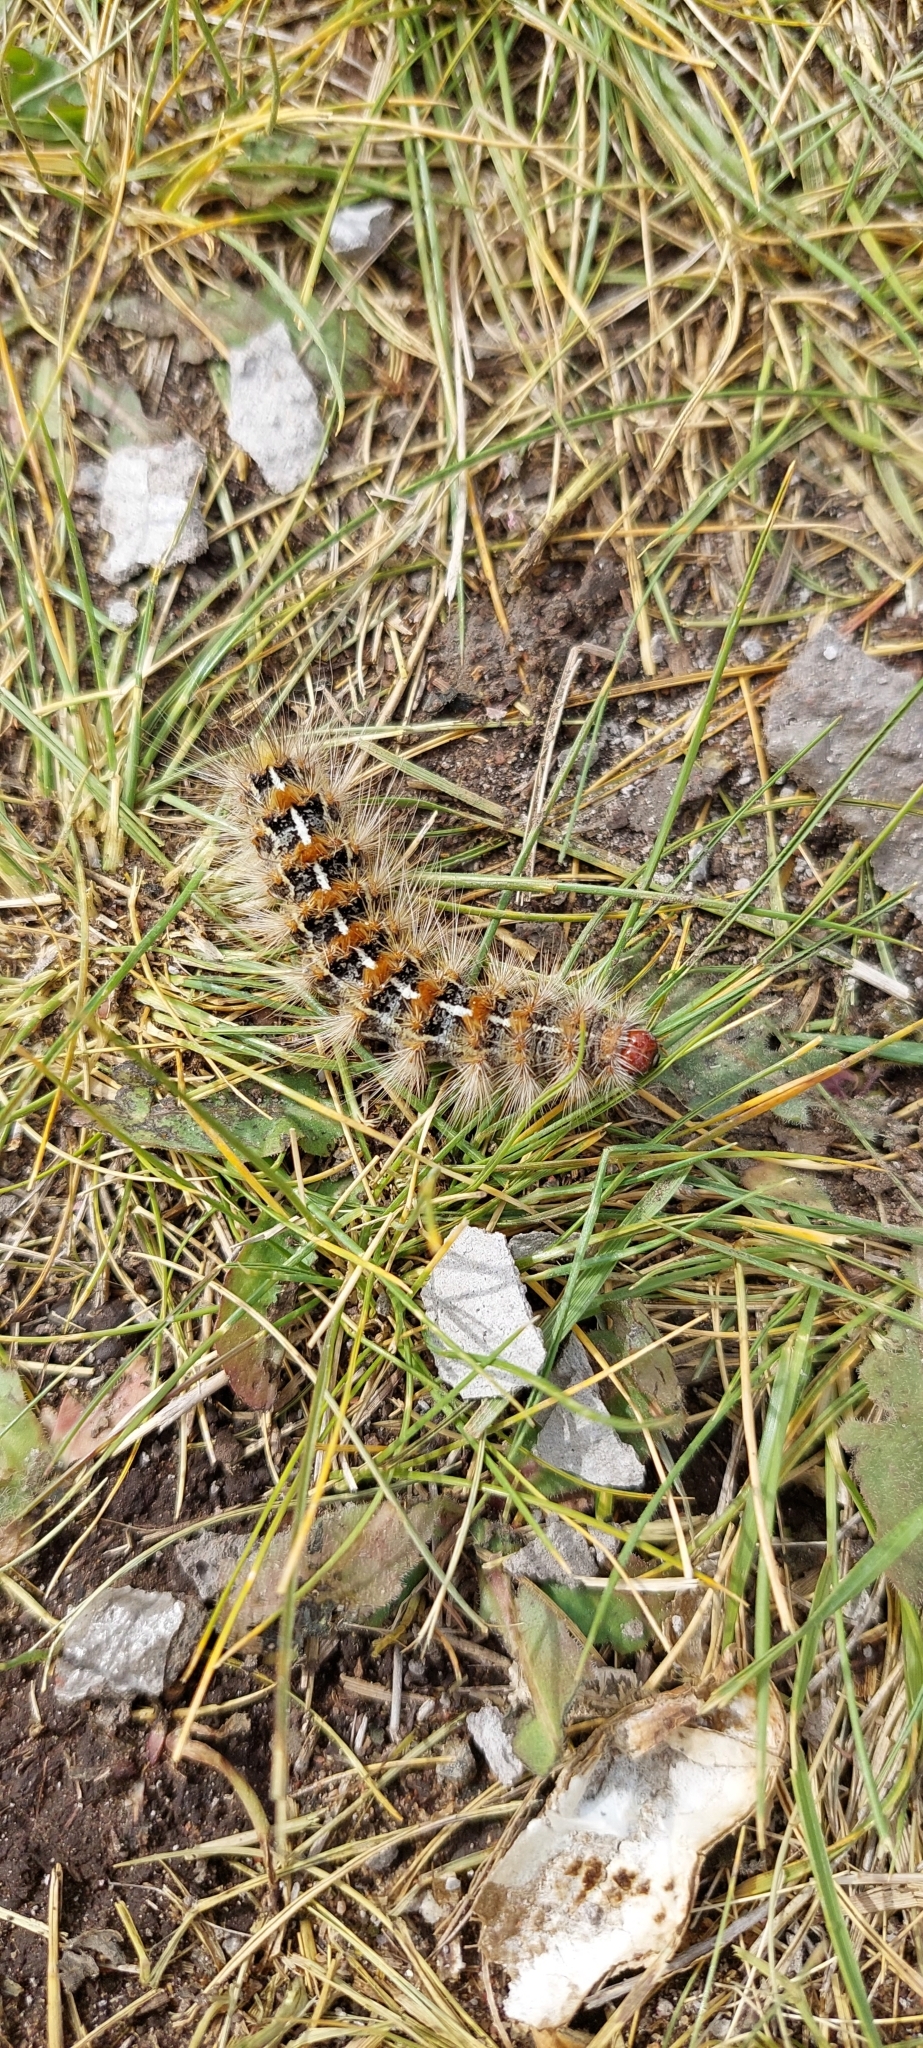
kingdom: Animalia
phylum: Arthropoda
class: Insecta
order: Lepidoptera
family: Erebidae
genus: Paracles
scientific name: Paracles deserticola
